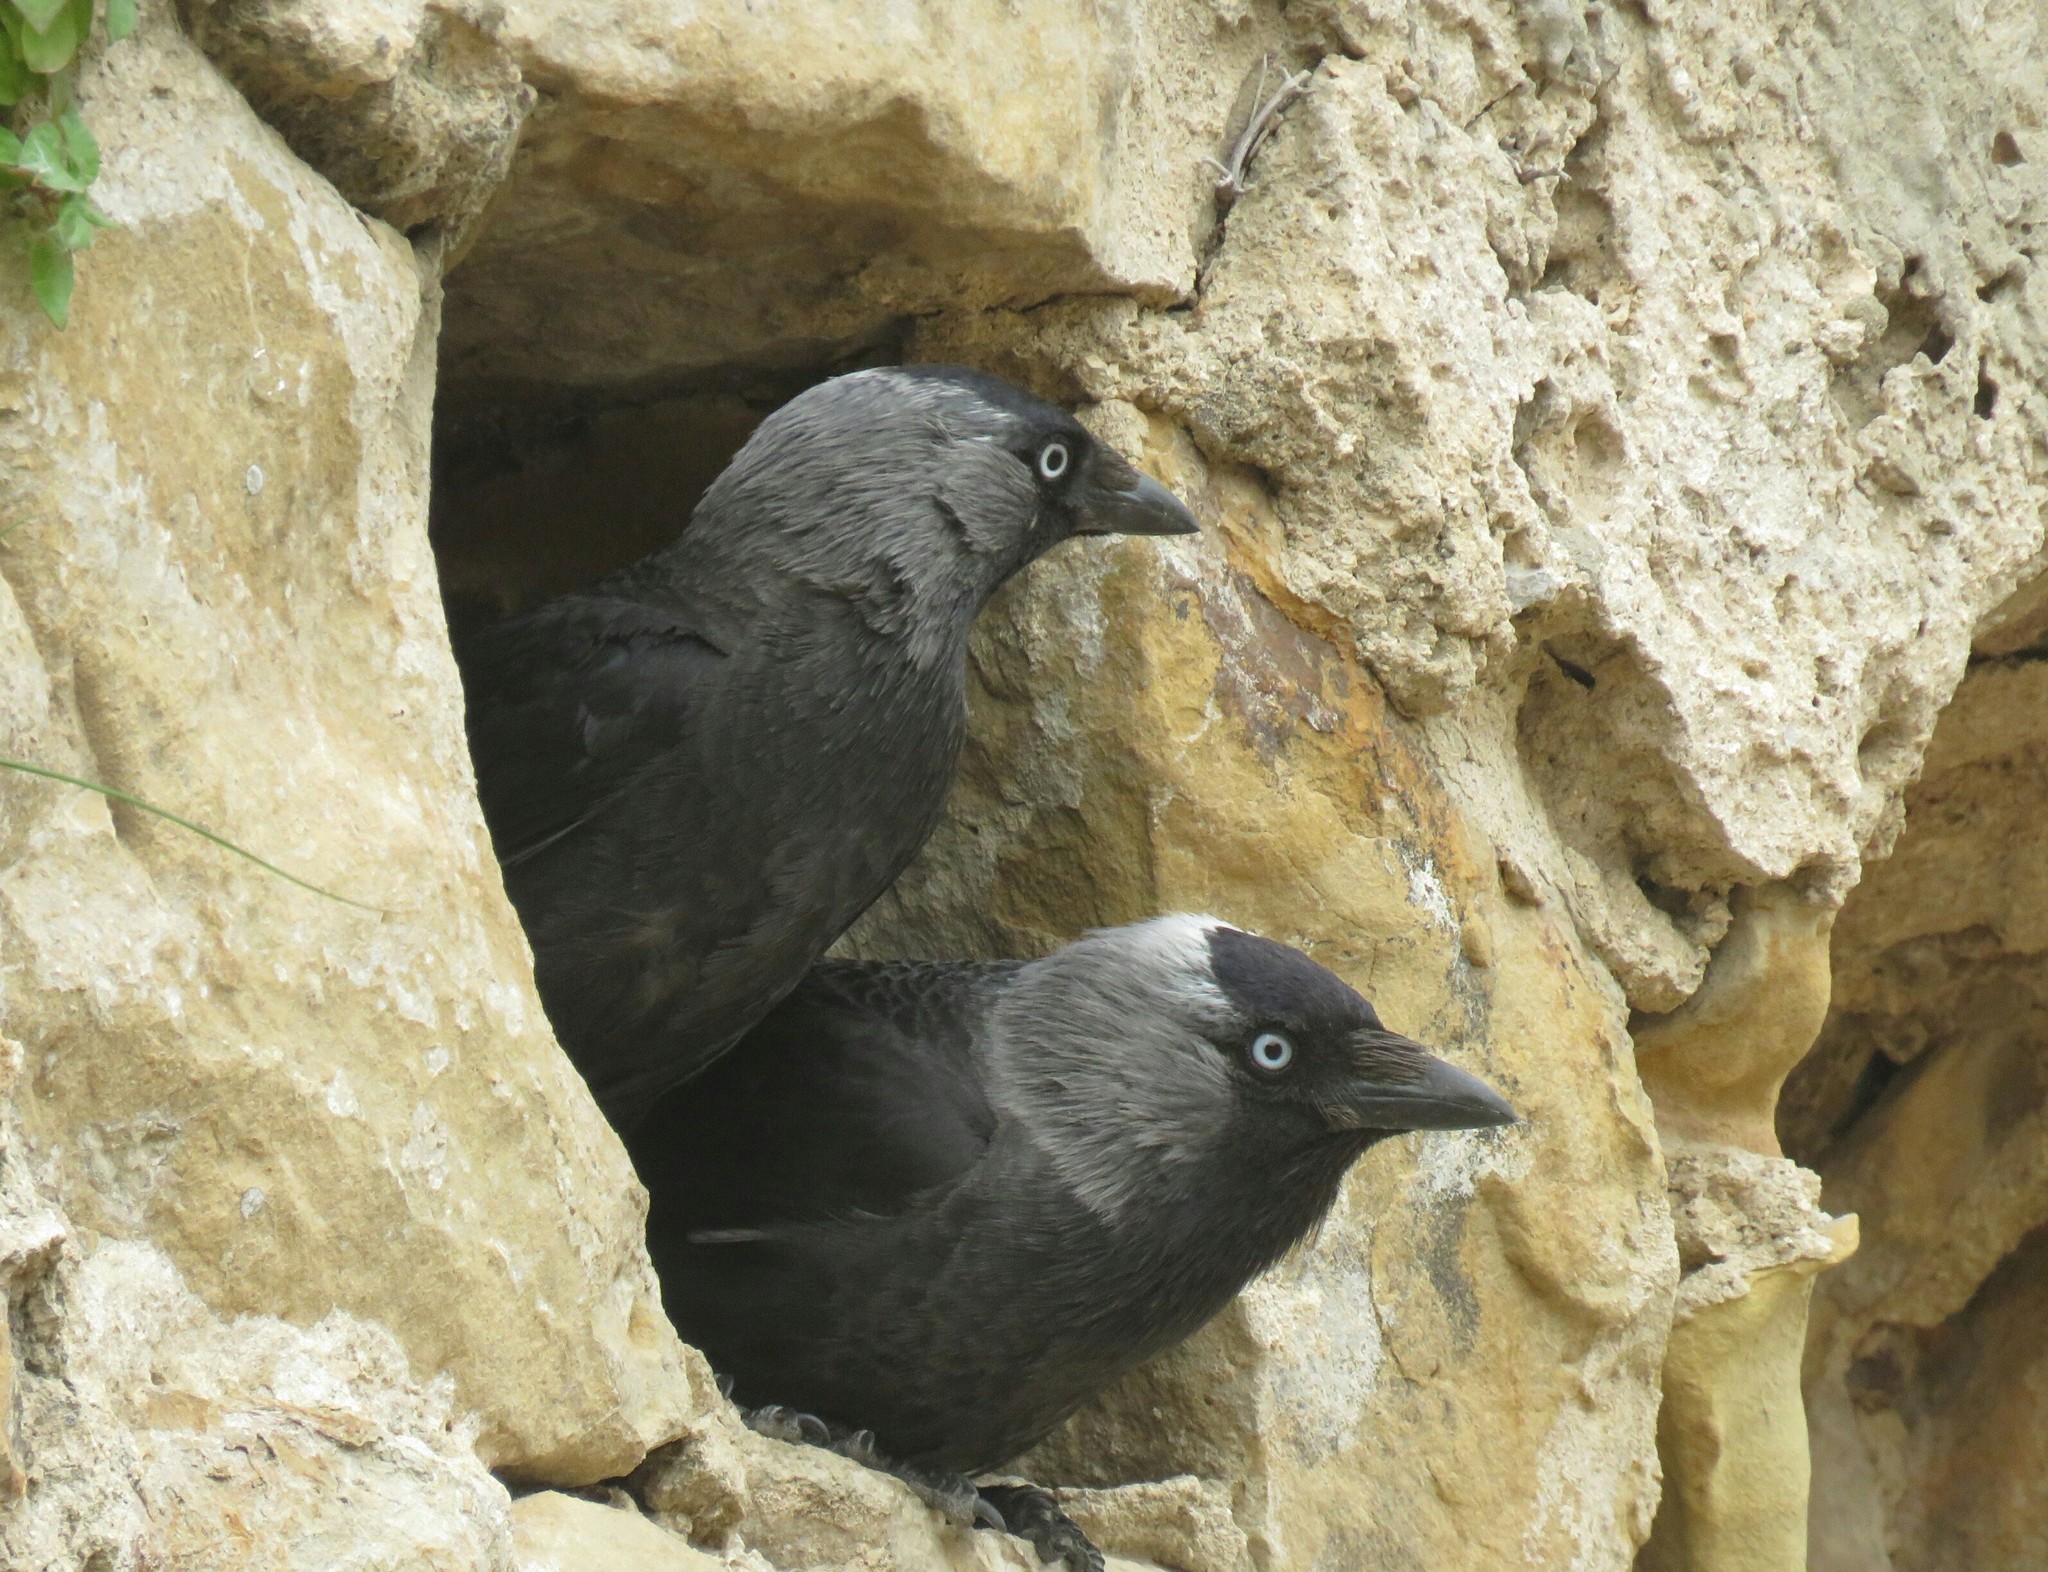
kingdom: Animalia
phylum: Chordata
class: Aves
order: Passeriformes
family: Corvidae
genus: Coloeus
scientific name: Coloeus monedula
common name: Western jackdaw
